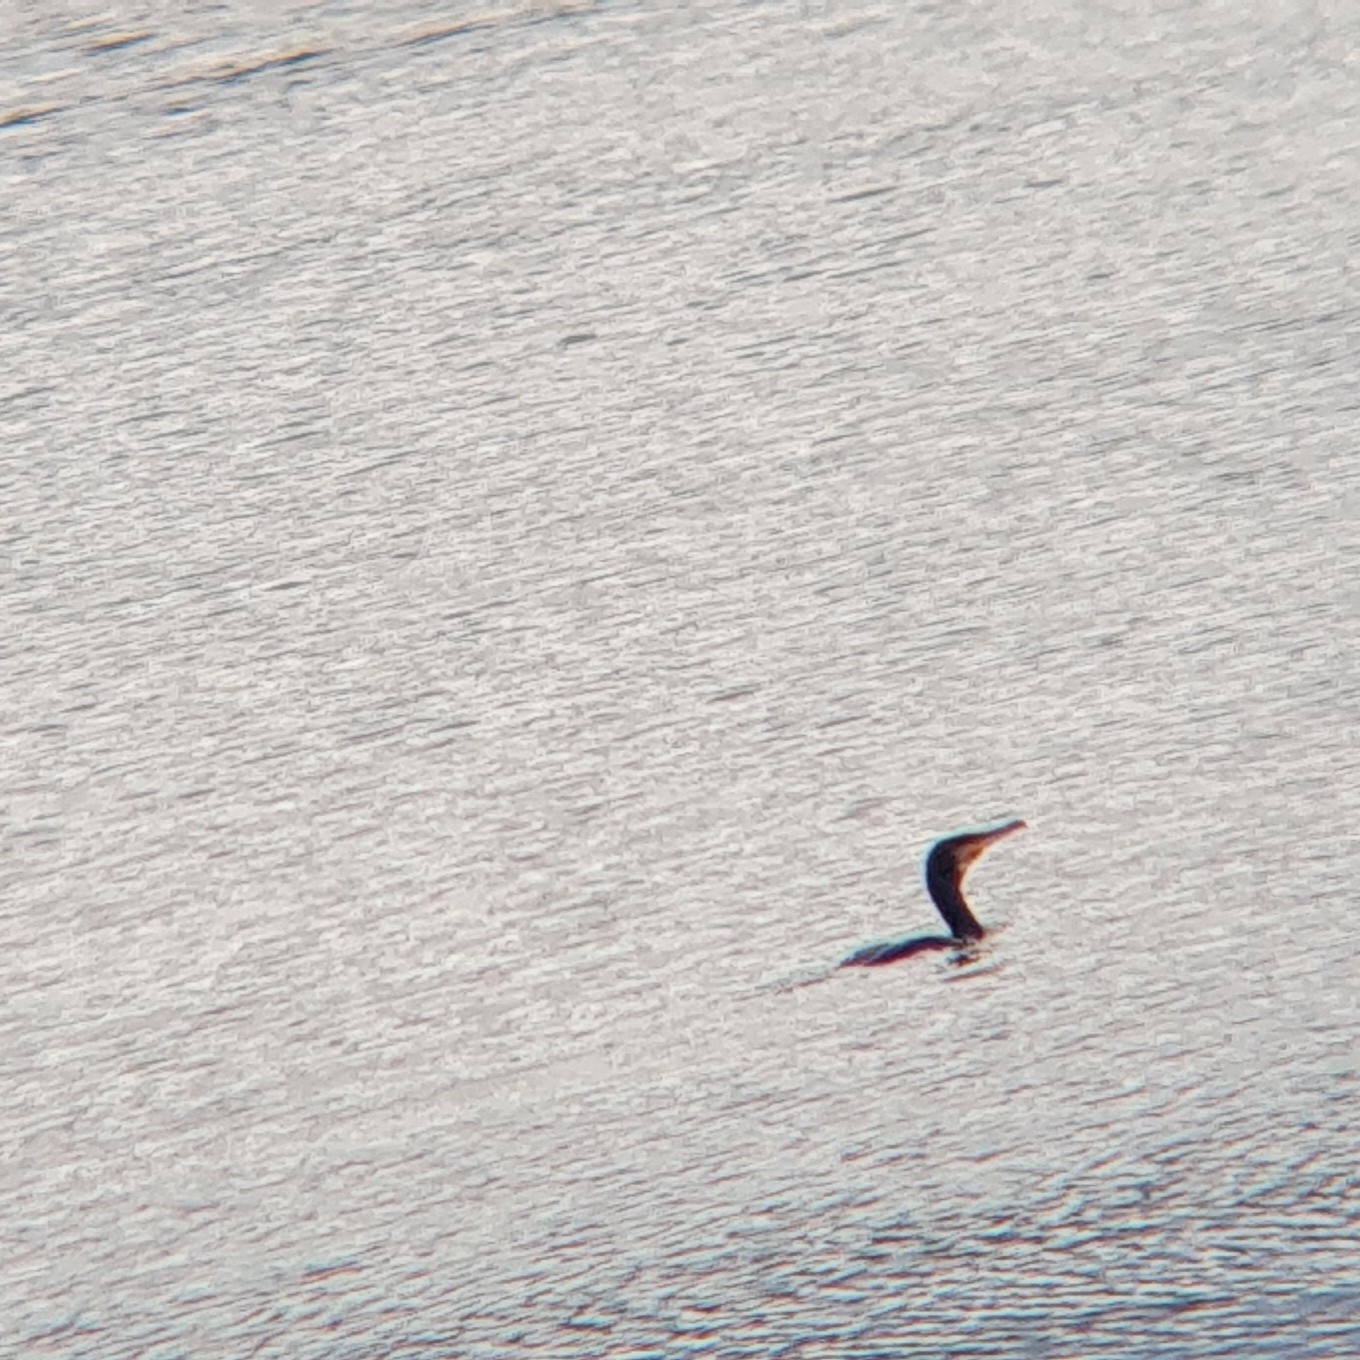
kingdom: Animalia
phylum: Chordata
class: Aves
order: Suliformes
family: Phalacrocoracidae
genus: Phalacrocorax
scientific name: Phalacrocorax carbo
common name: Great cormorant
